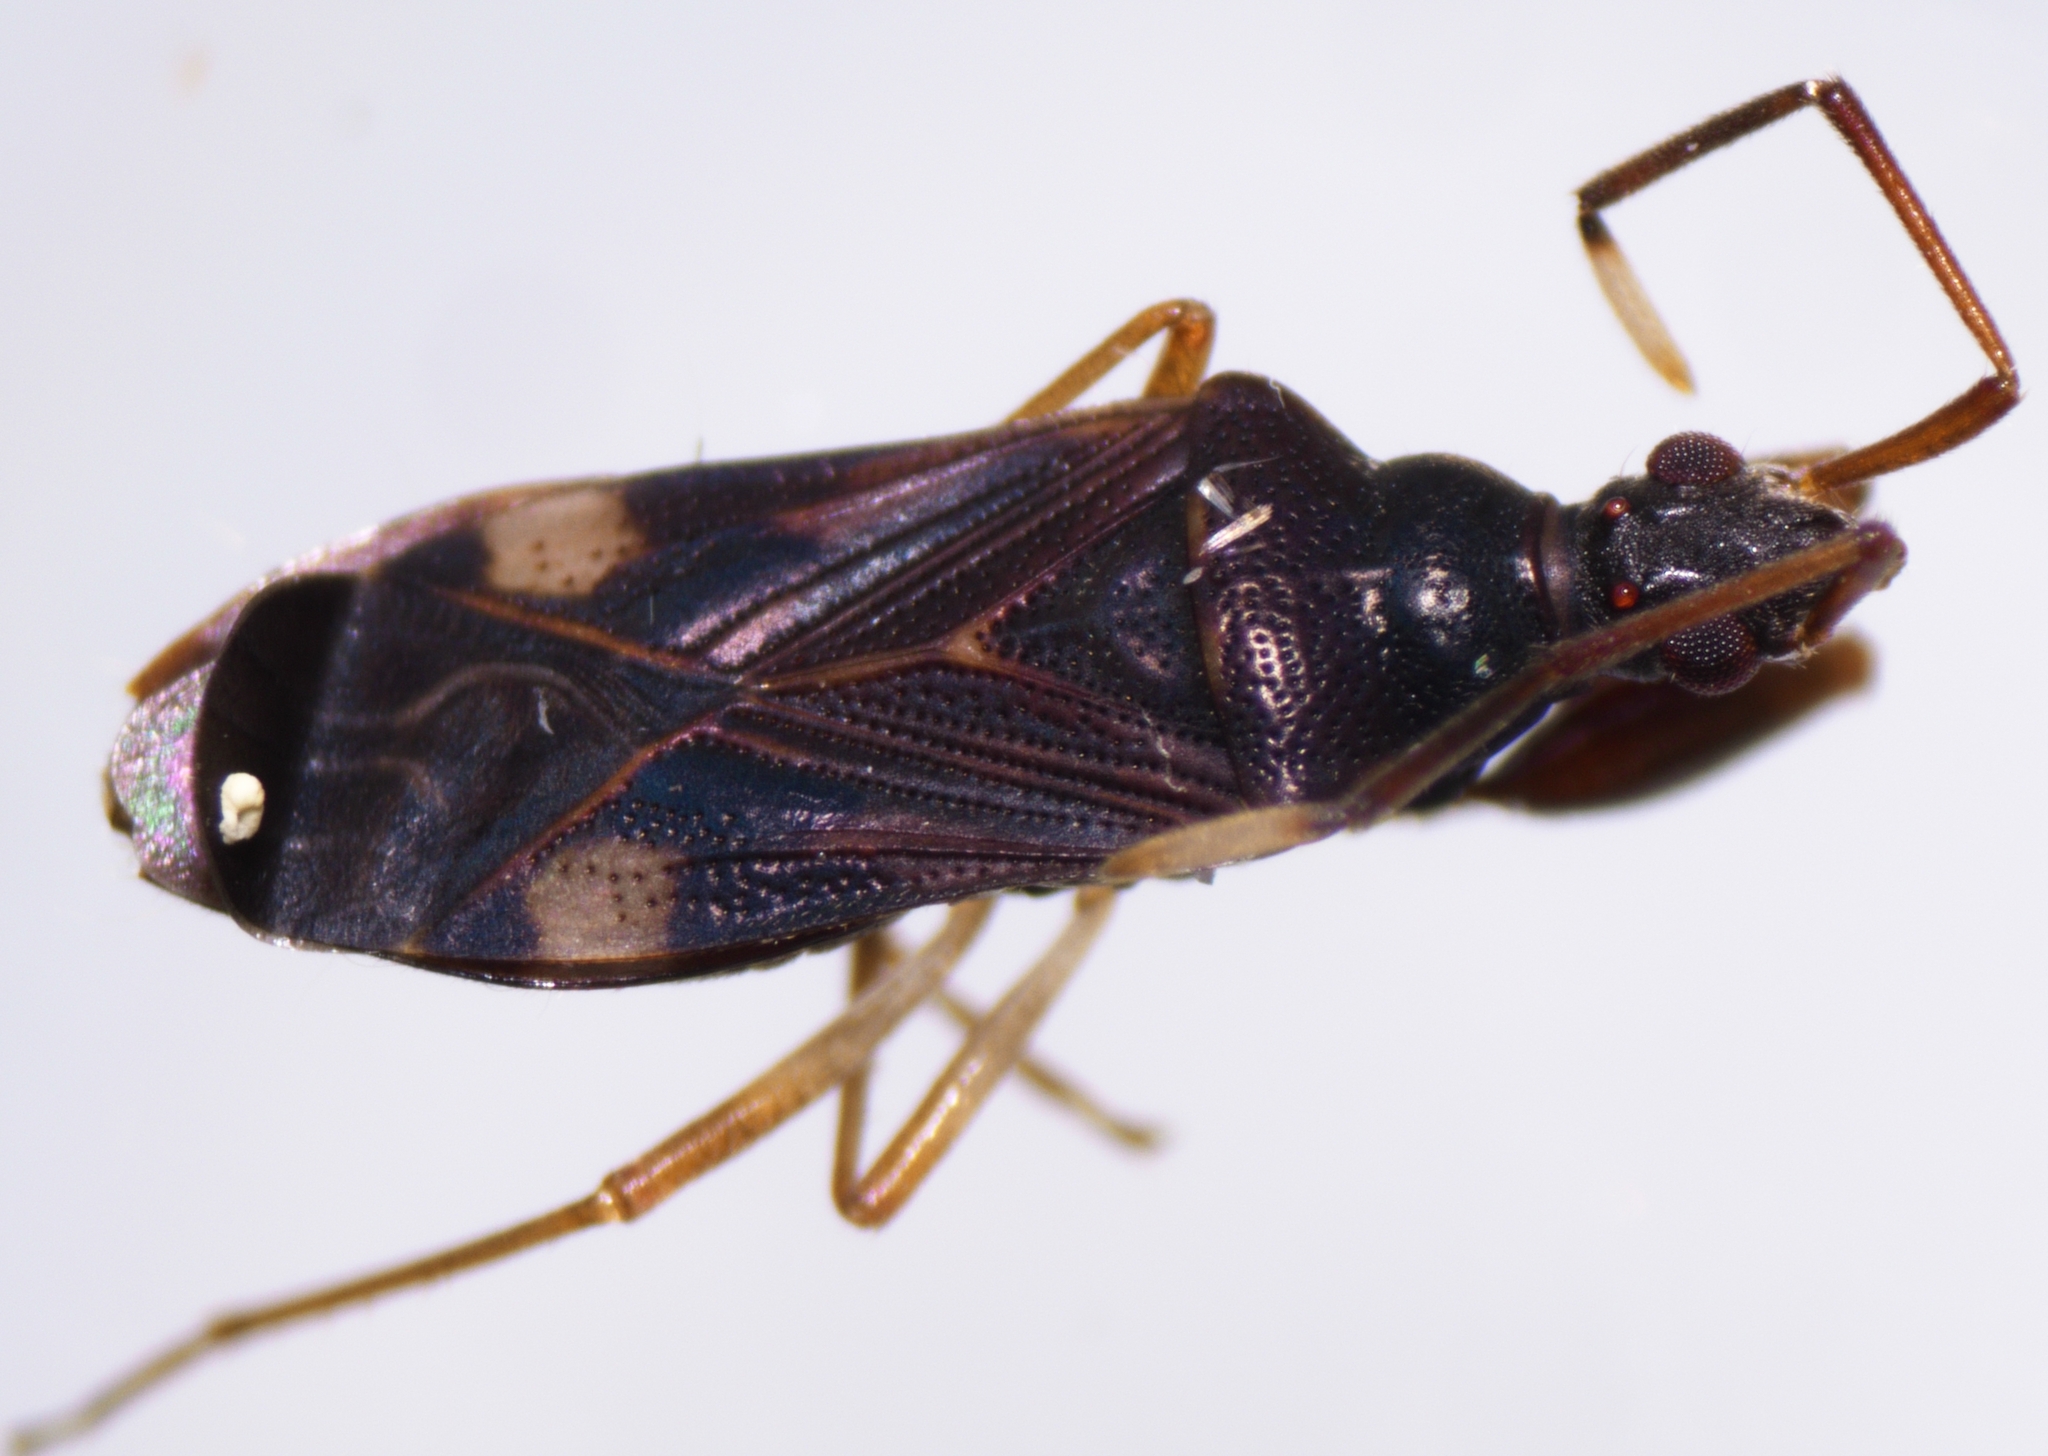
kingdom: Animalia
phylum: Arthropoda
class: Insecta
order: Hemiptera
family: Rhyparochromidae
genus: Bedunia
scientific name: Bedunia nesiotes
